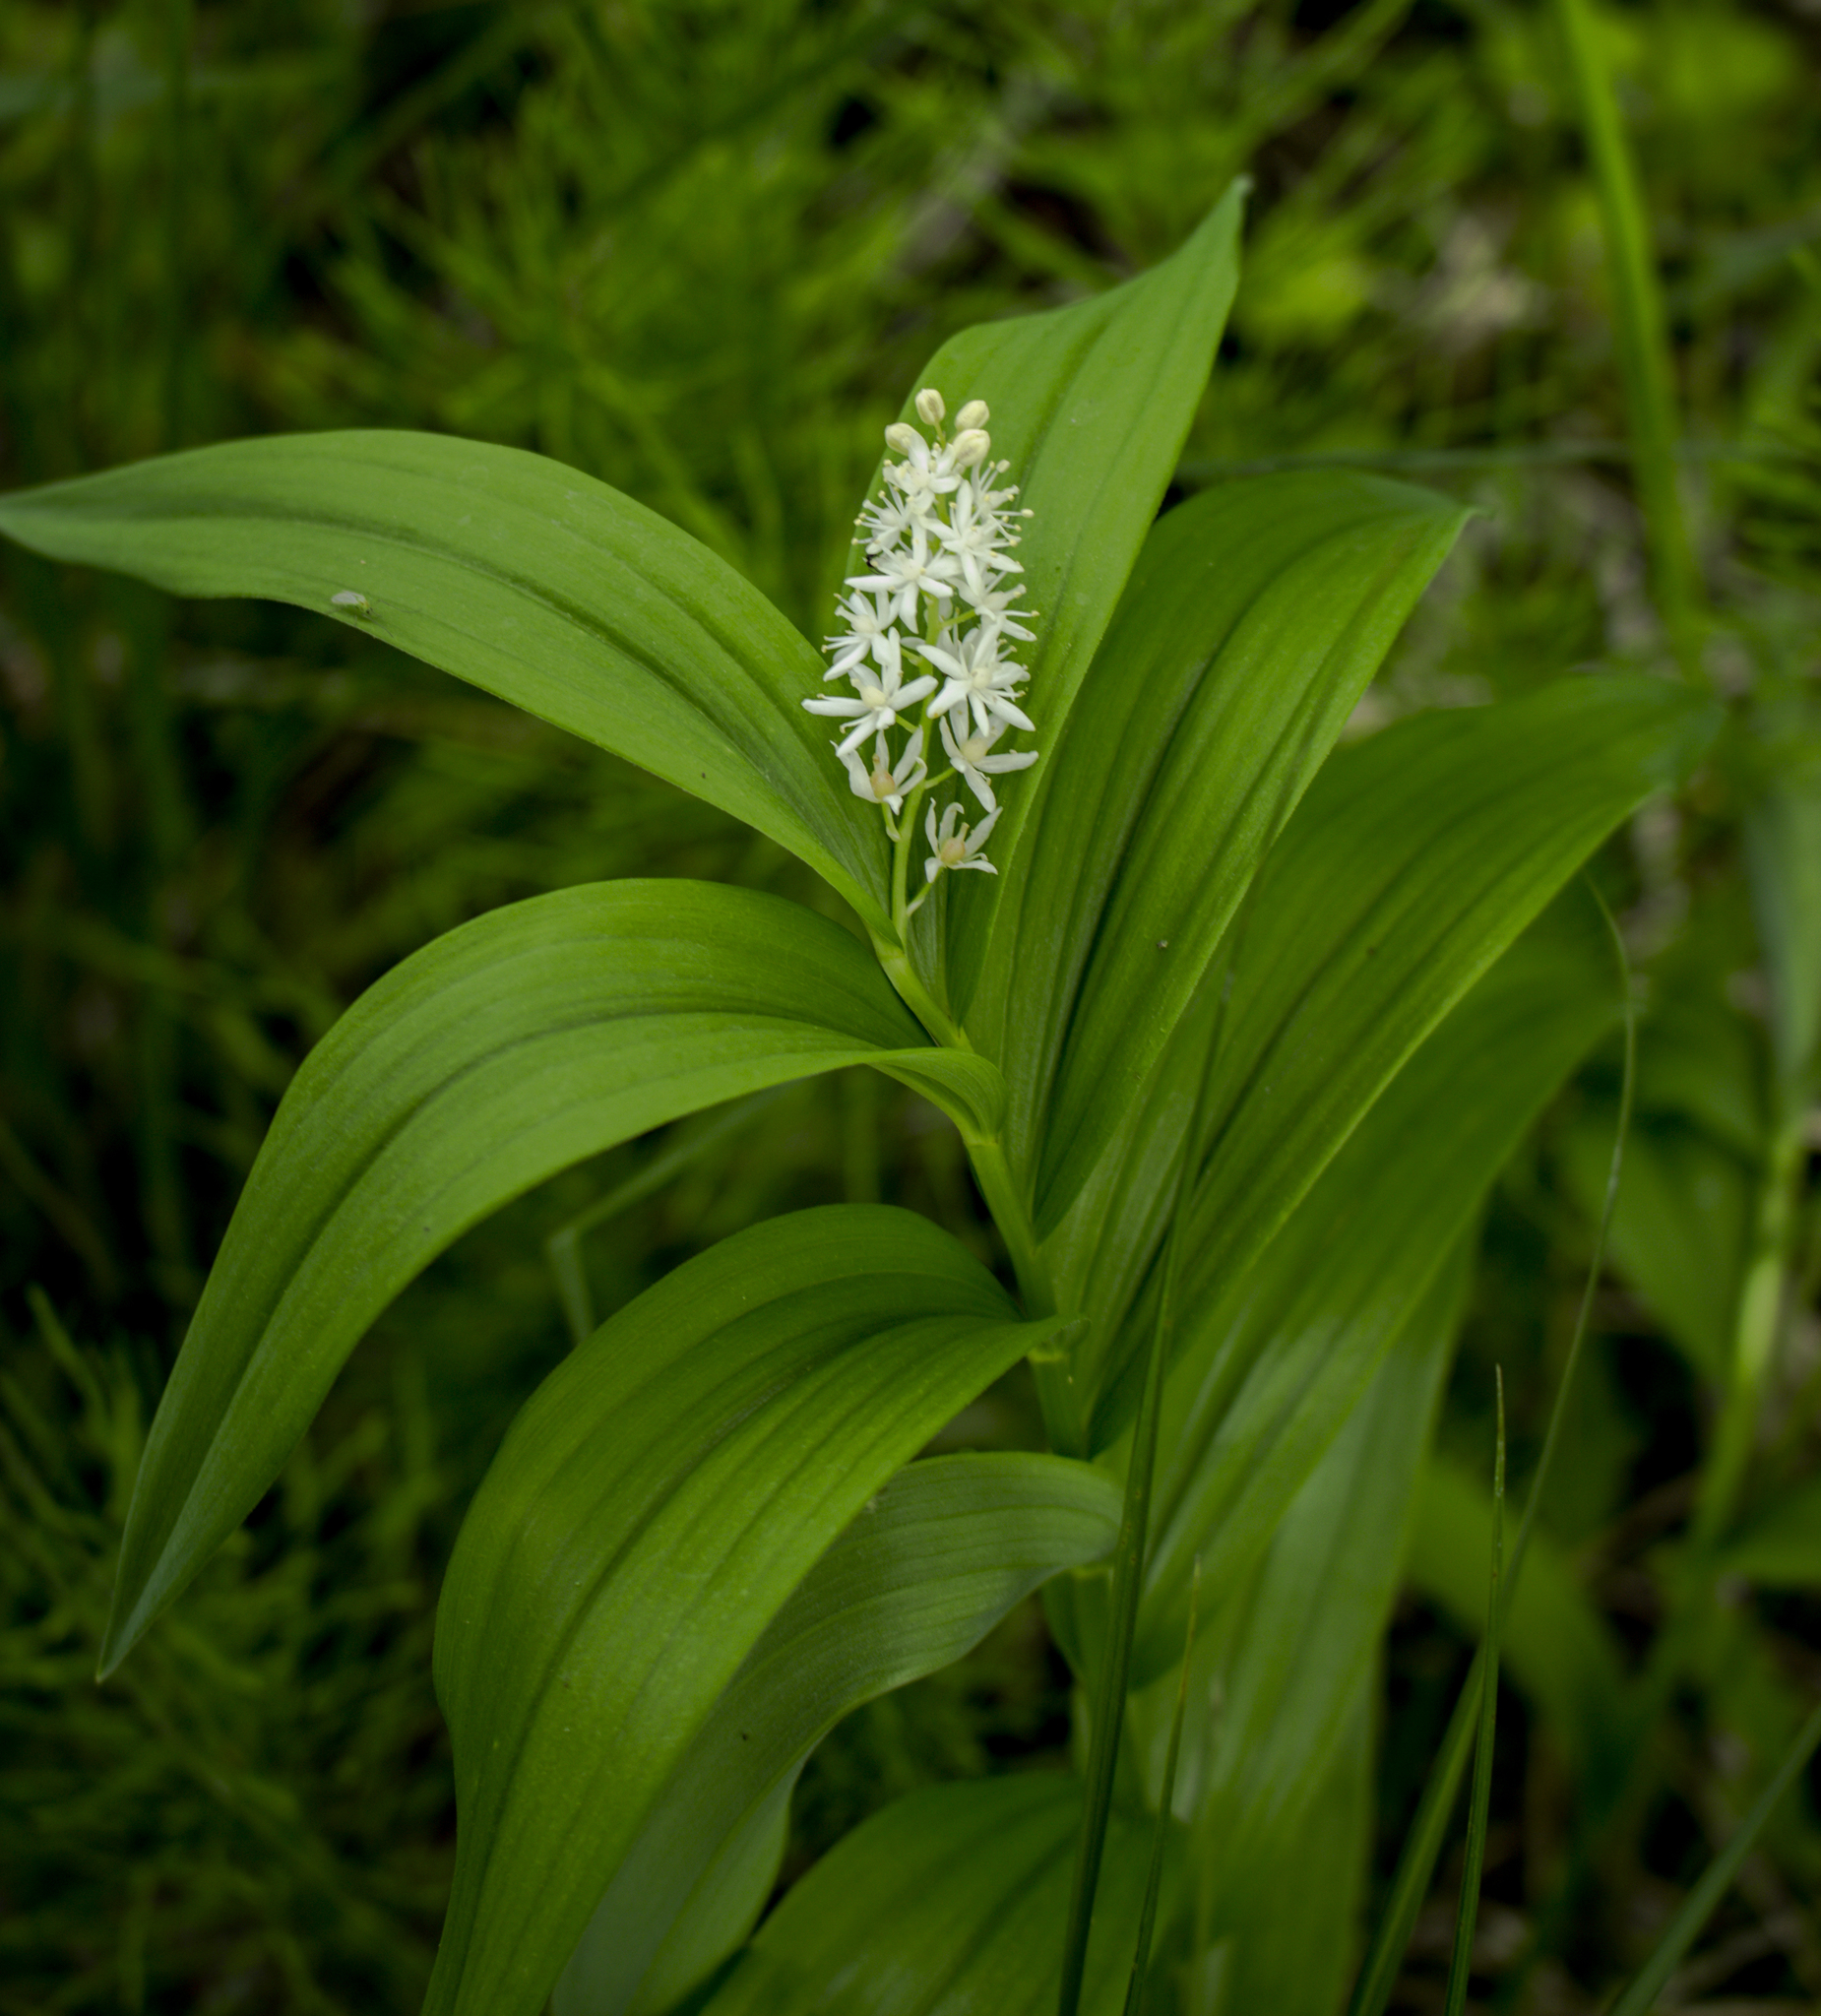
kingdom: Plantae
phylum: Tracheophyta
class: Liliopsida
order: Asparagales
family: Asparagaceae
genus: Maianthemum
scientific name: Maianthemum stellatum
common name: Little false solomon's seal
